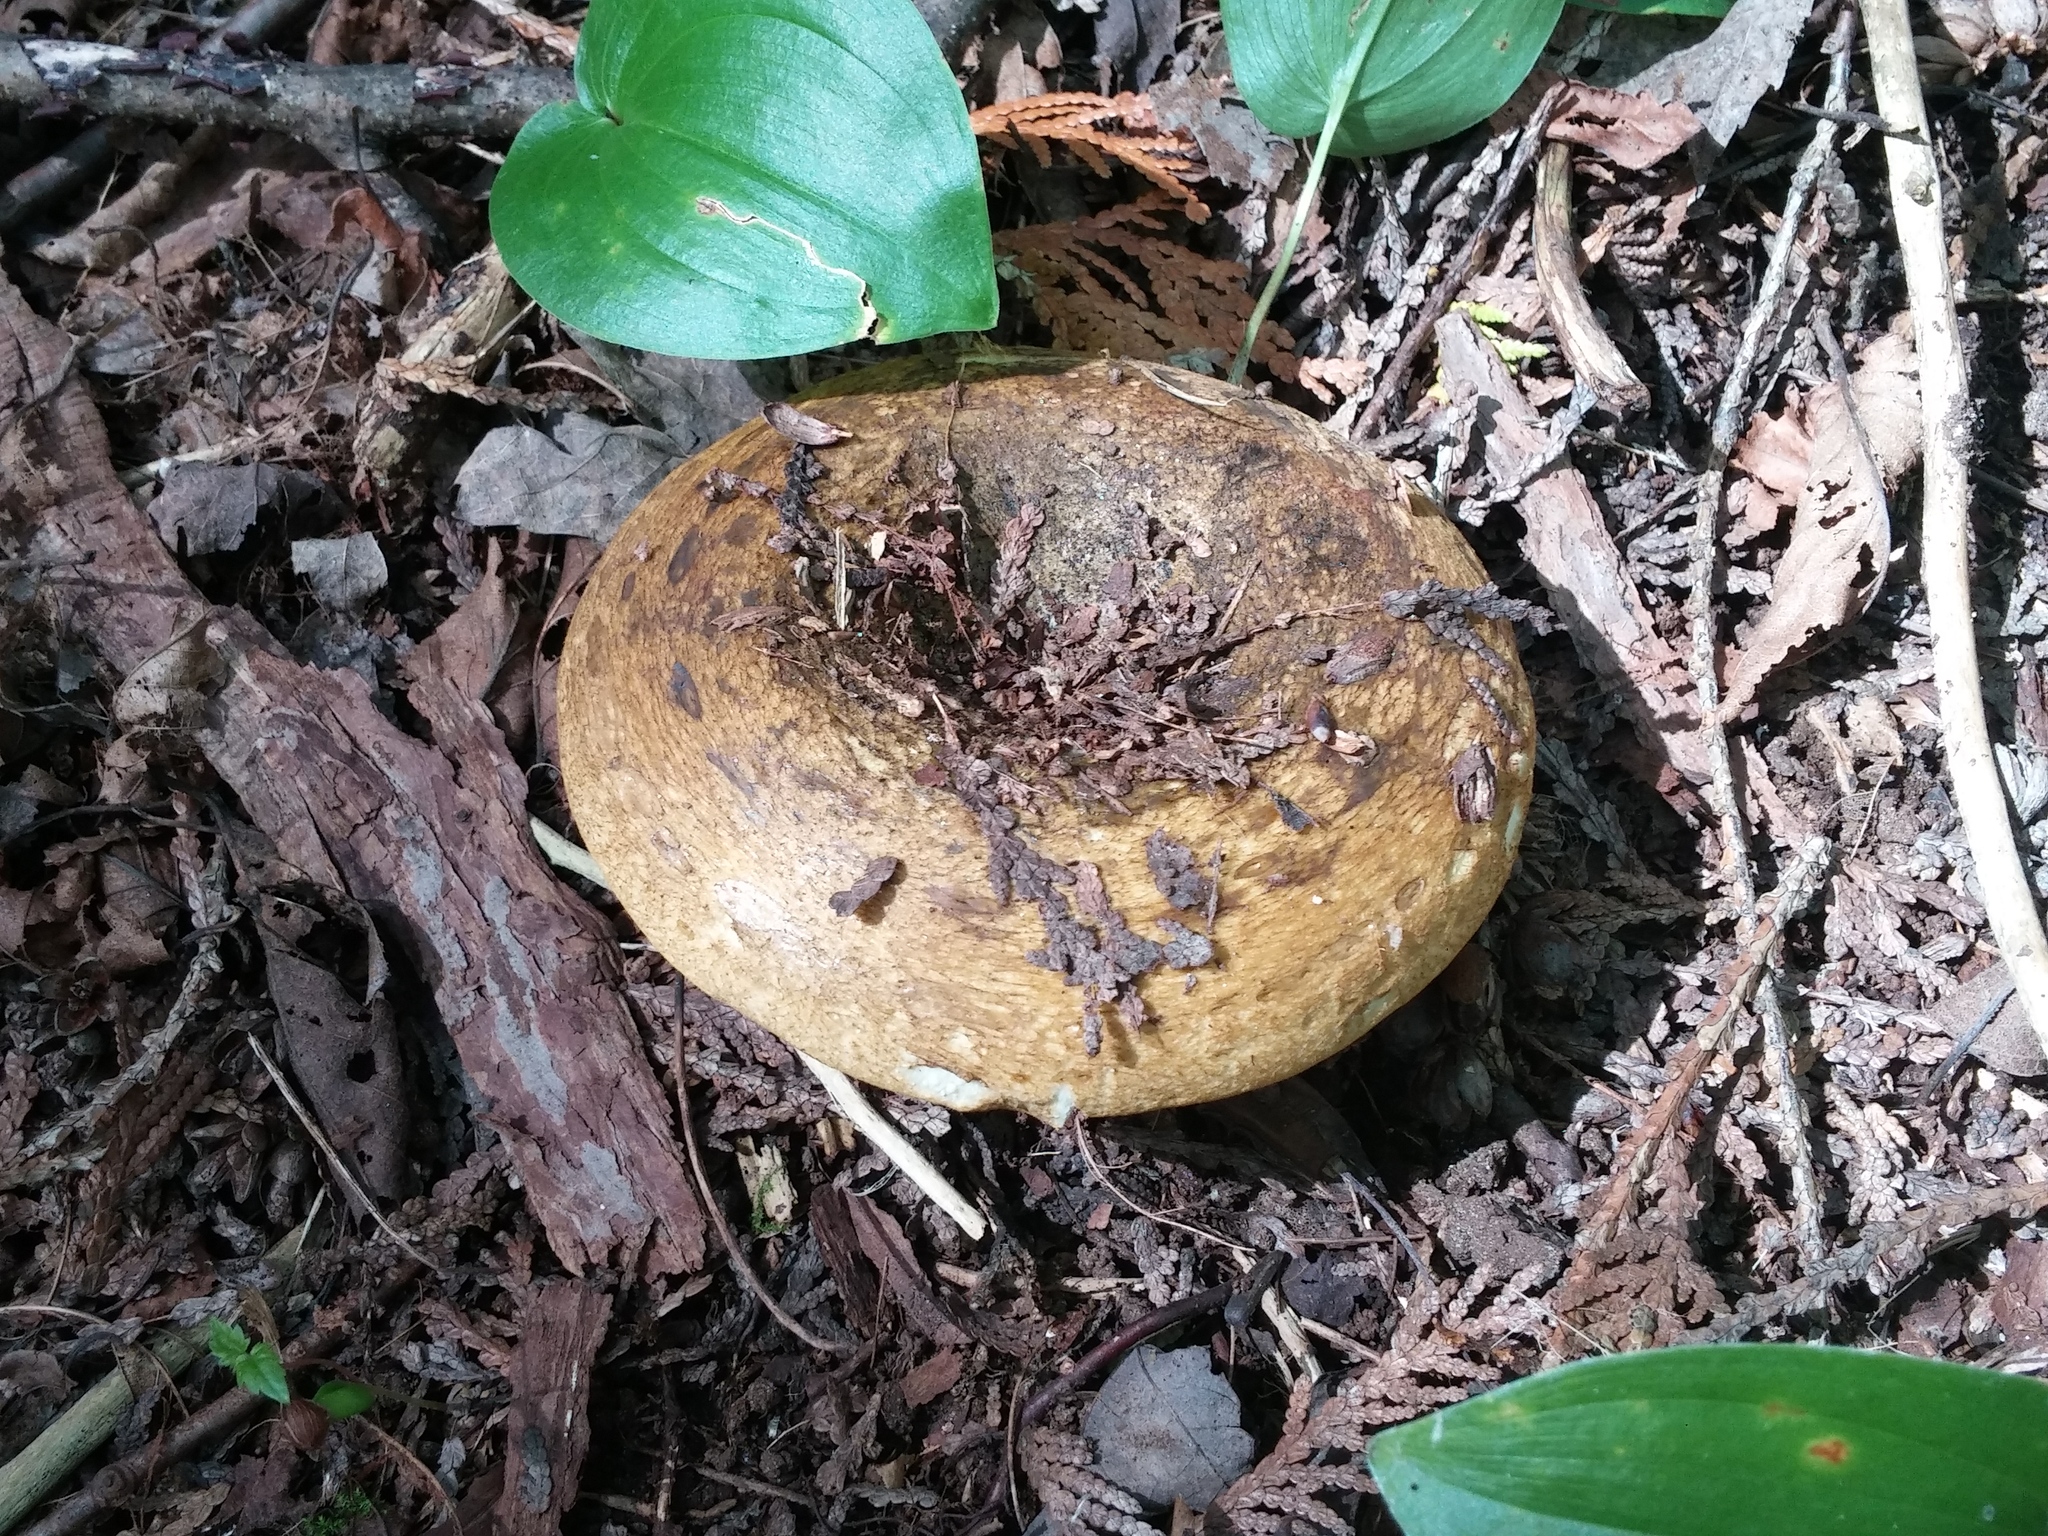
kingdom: Fungi
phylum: Basidiomycota
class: Agaricomycetes
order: Russulales
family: Russulaceae
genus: Lactarius
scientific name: Lactarius turpis
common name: Ugly milk-cap
